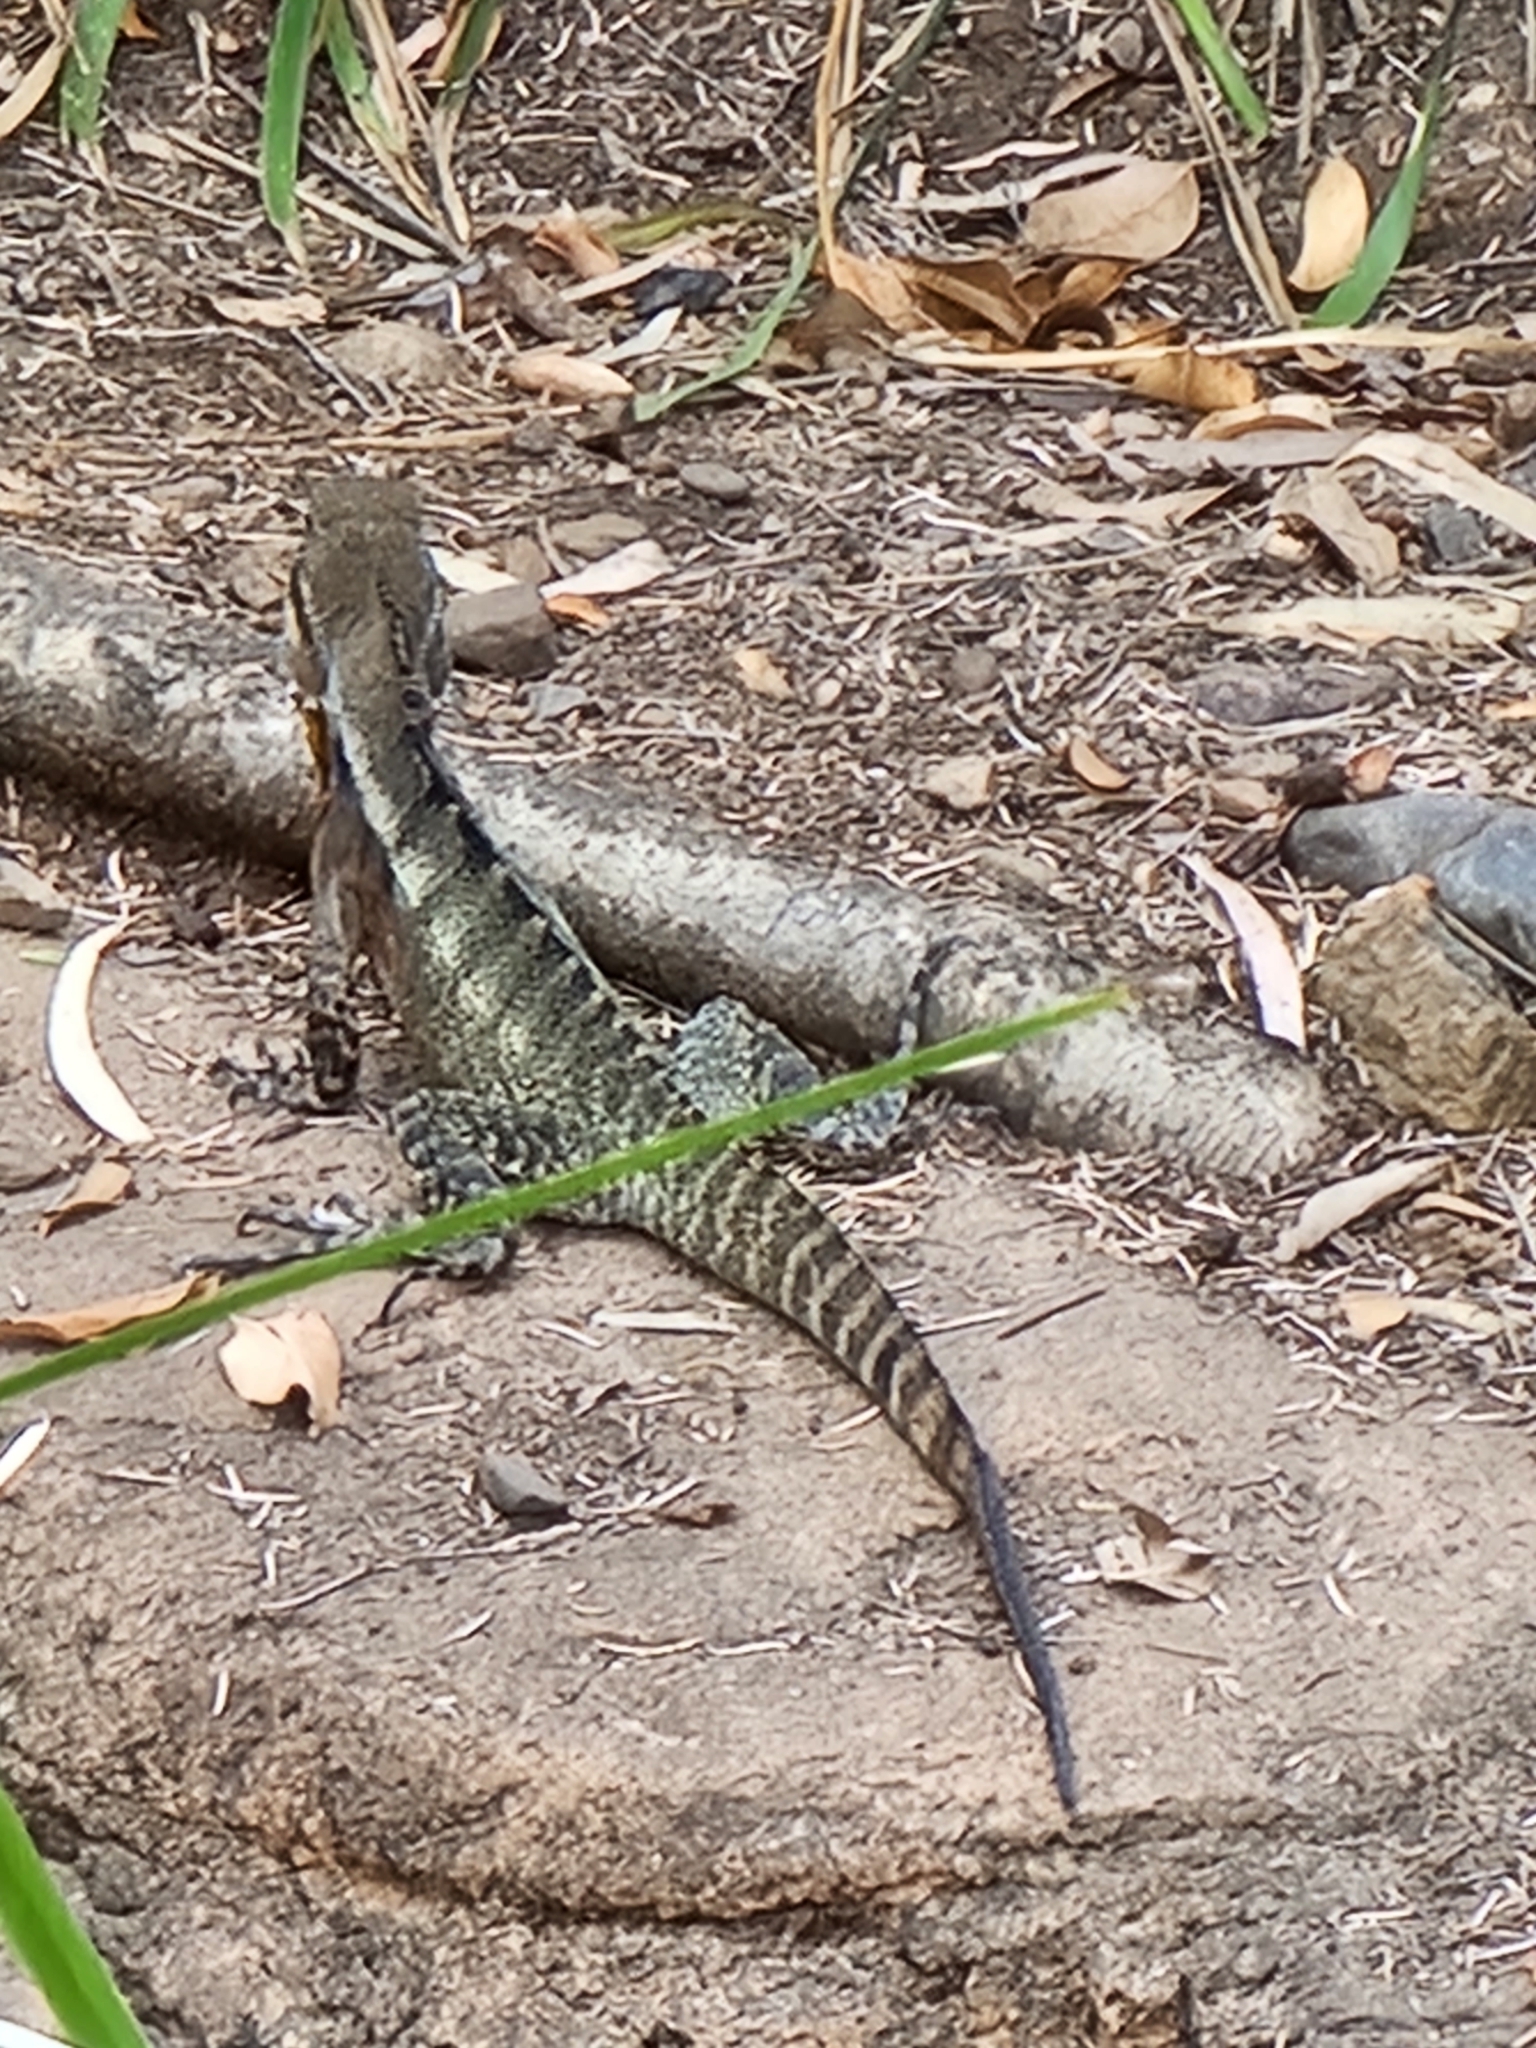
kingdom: Animalia
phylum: Chordata
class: Squamata
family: Agamidae
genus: Intellagama
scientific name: Intellagama lesueurii
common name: Eastern water dragon
